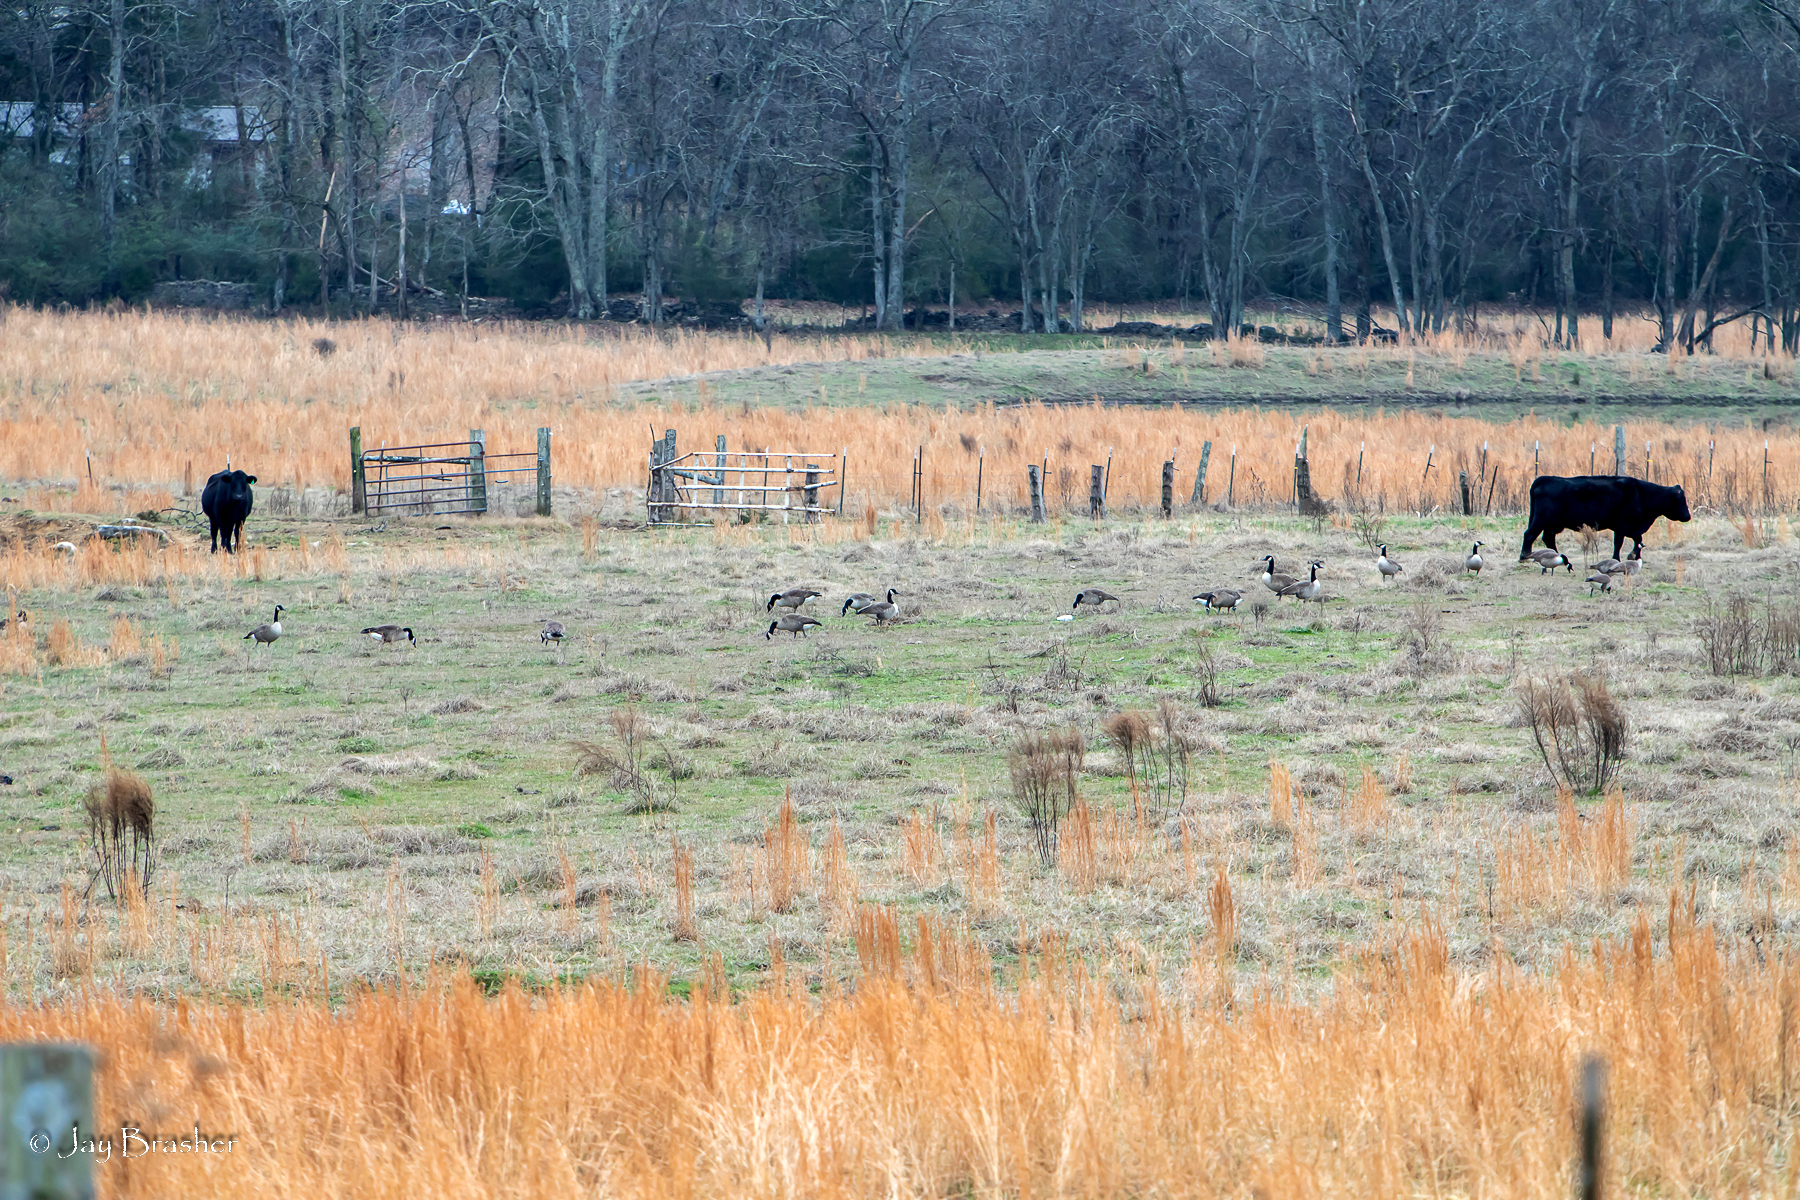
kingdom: Animalia
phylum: Chordata
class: Aves
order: Anseriformes
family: Anatidae
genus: Branta
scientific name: Branta canadensis
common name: Canada goose
